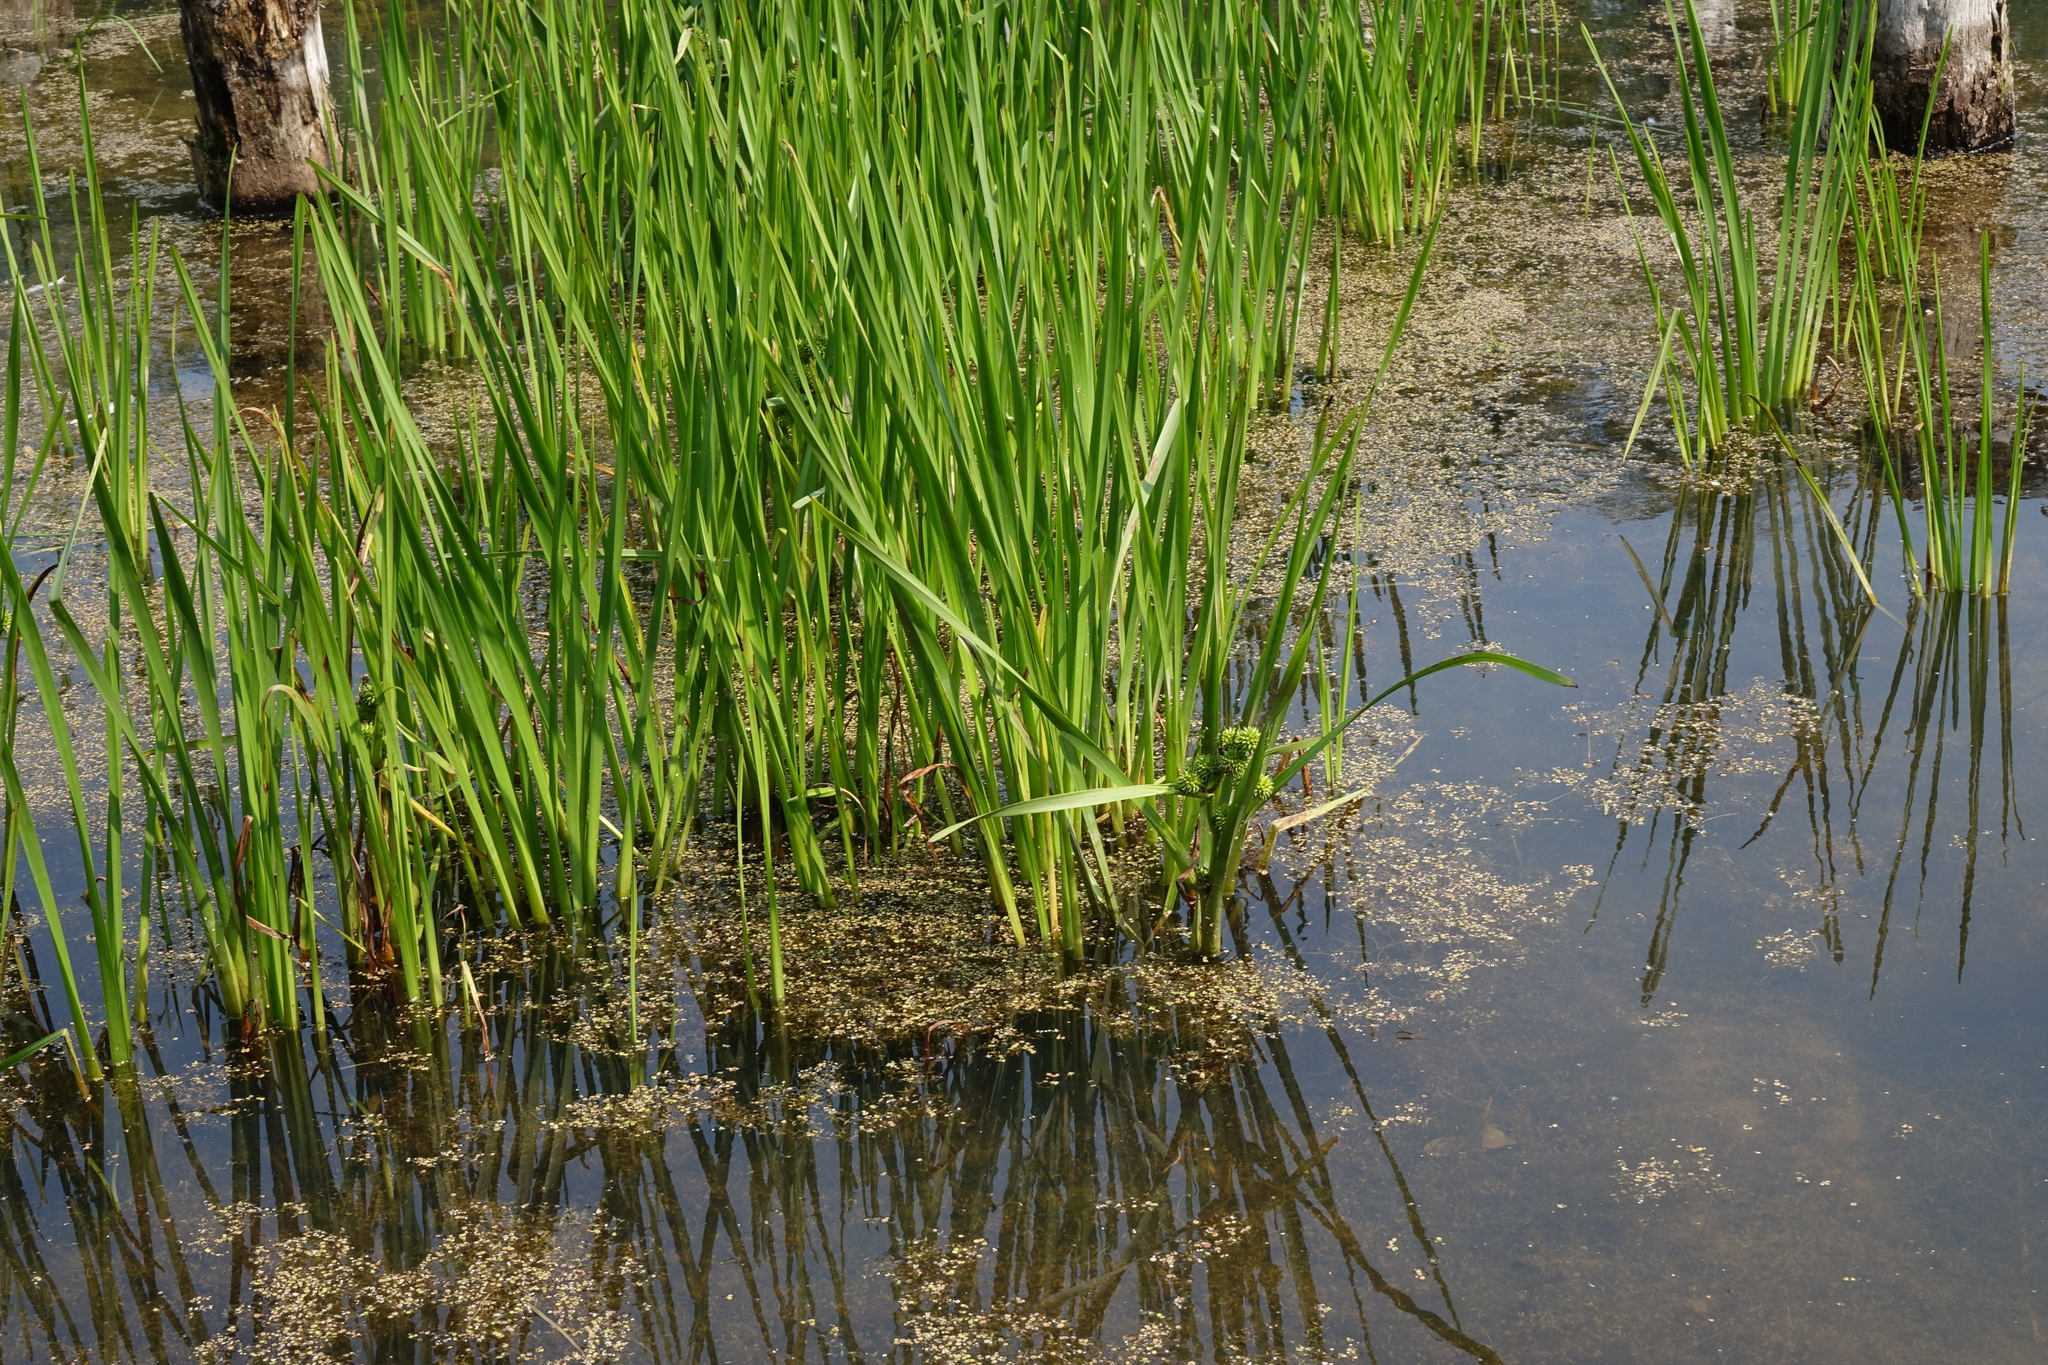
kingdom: Plantae
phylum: Tracheophyta
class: Liliopsida
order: Poales
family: Typhaceae
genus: Sparganium
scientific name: Sparganium erectum
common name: Branched bur-reed
